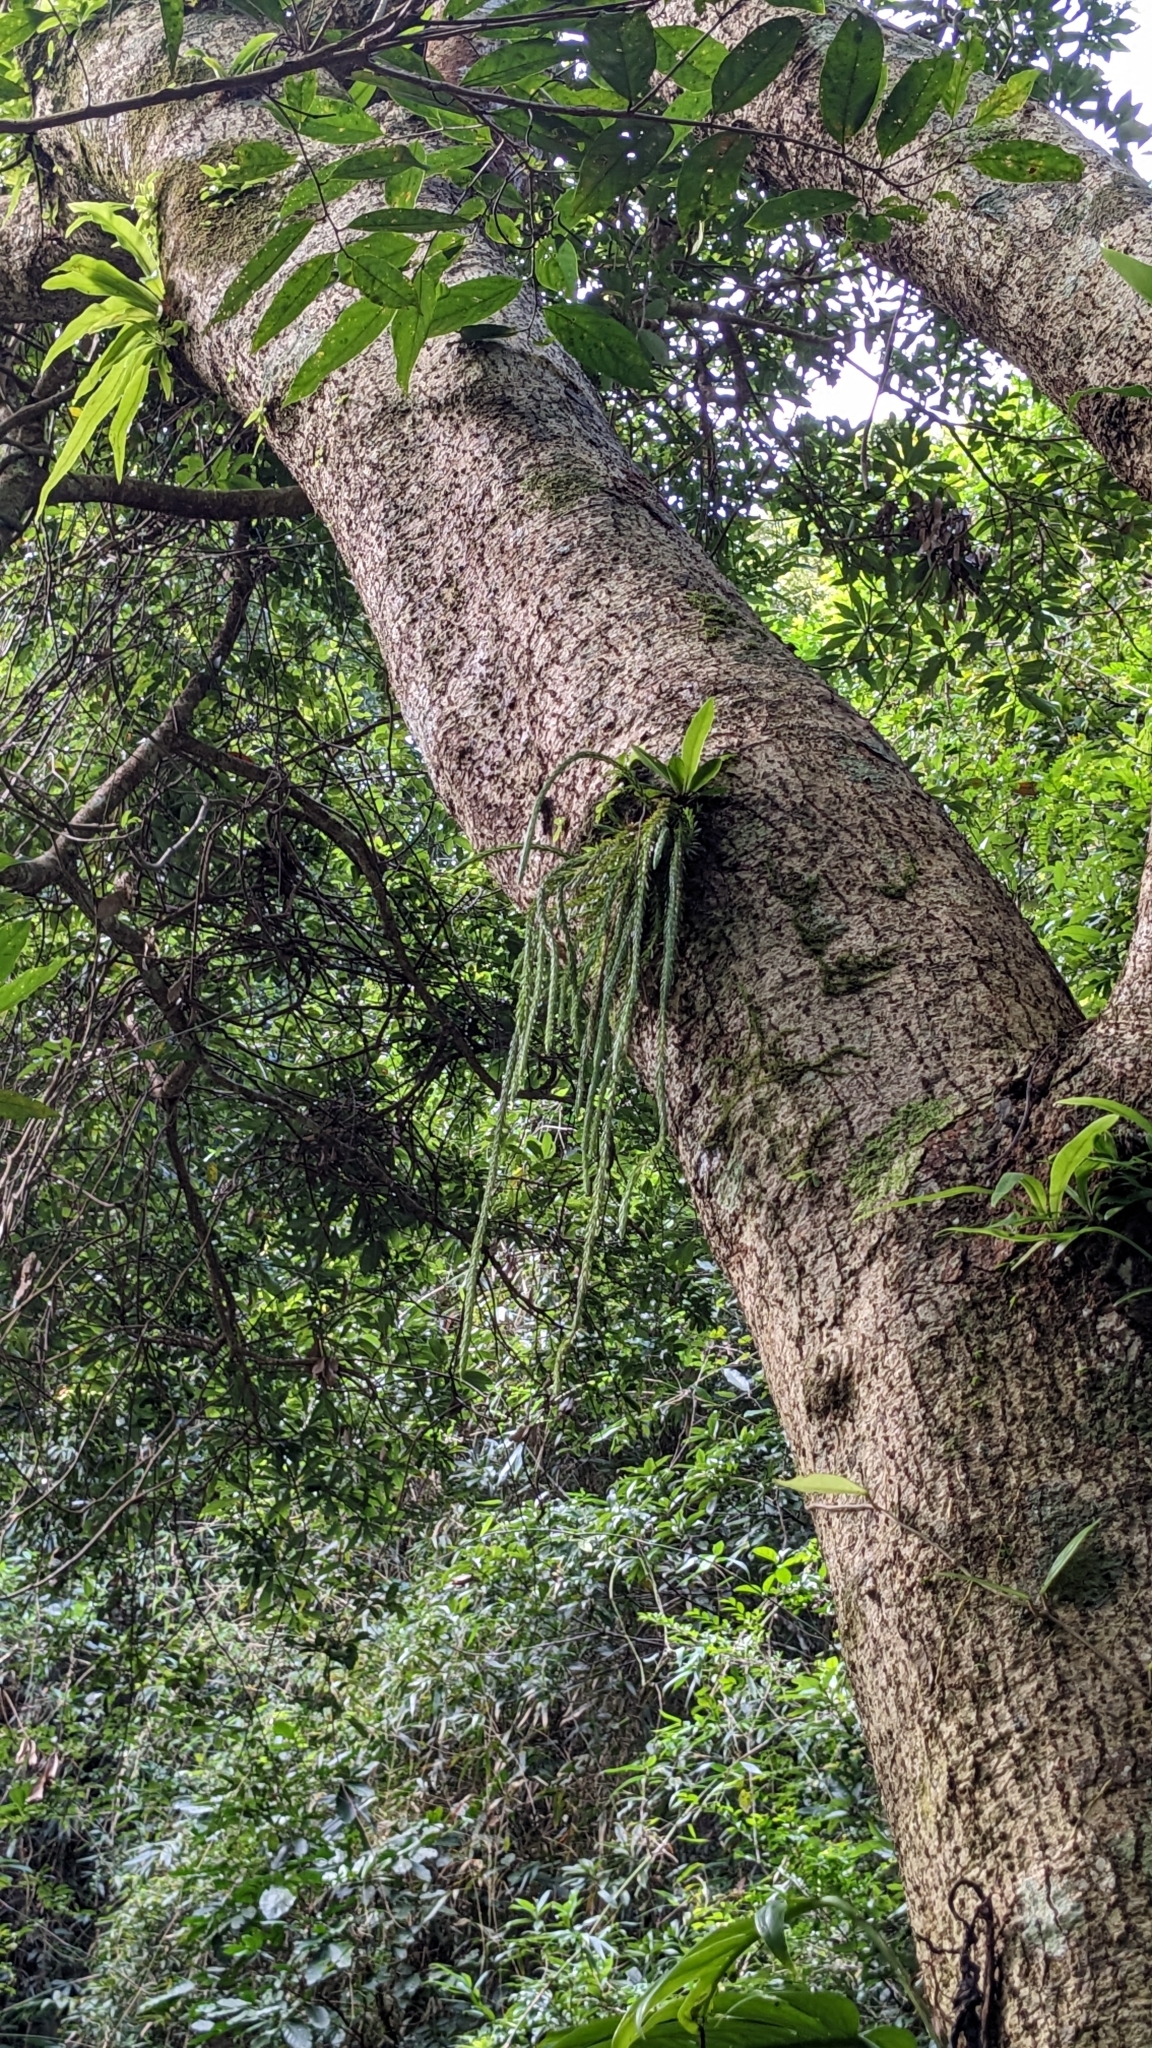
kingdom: Plantae
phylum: Tracheophyta
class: Lycopodiopsida
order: Lycopodiales
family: Lycopodiaceae
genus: Phlegmariurus
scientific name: Phlegmariurus carinatus
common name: Keeled tassel-fern
